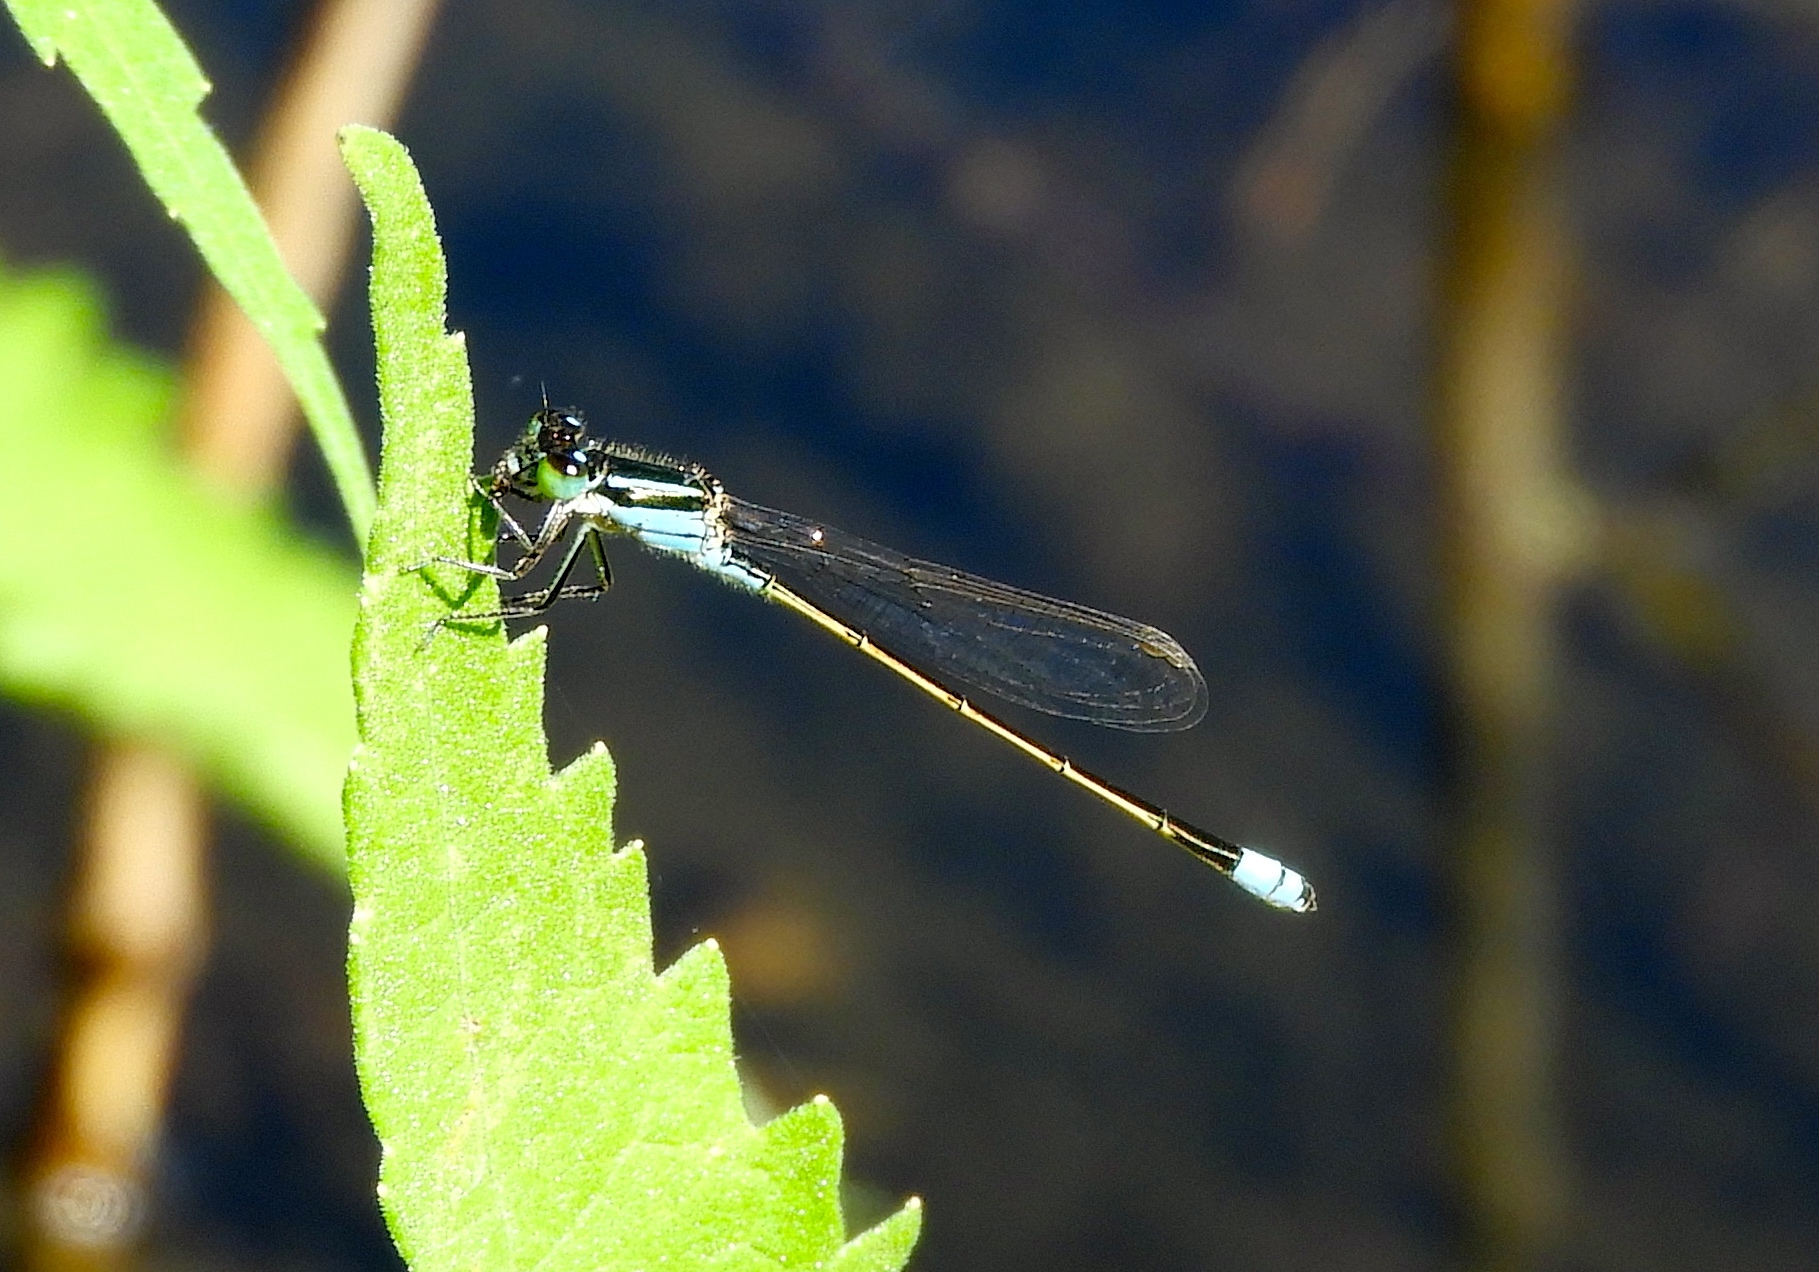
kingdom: Animalia
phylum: Arthropoda
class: Insecta
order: Odonata
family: Coenagrionidae
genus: Ischnura
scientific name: Ischnura ramburii
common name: Rambur's forktail
